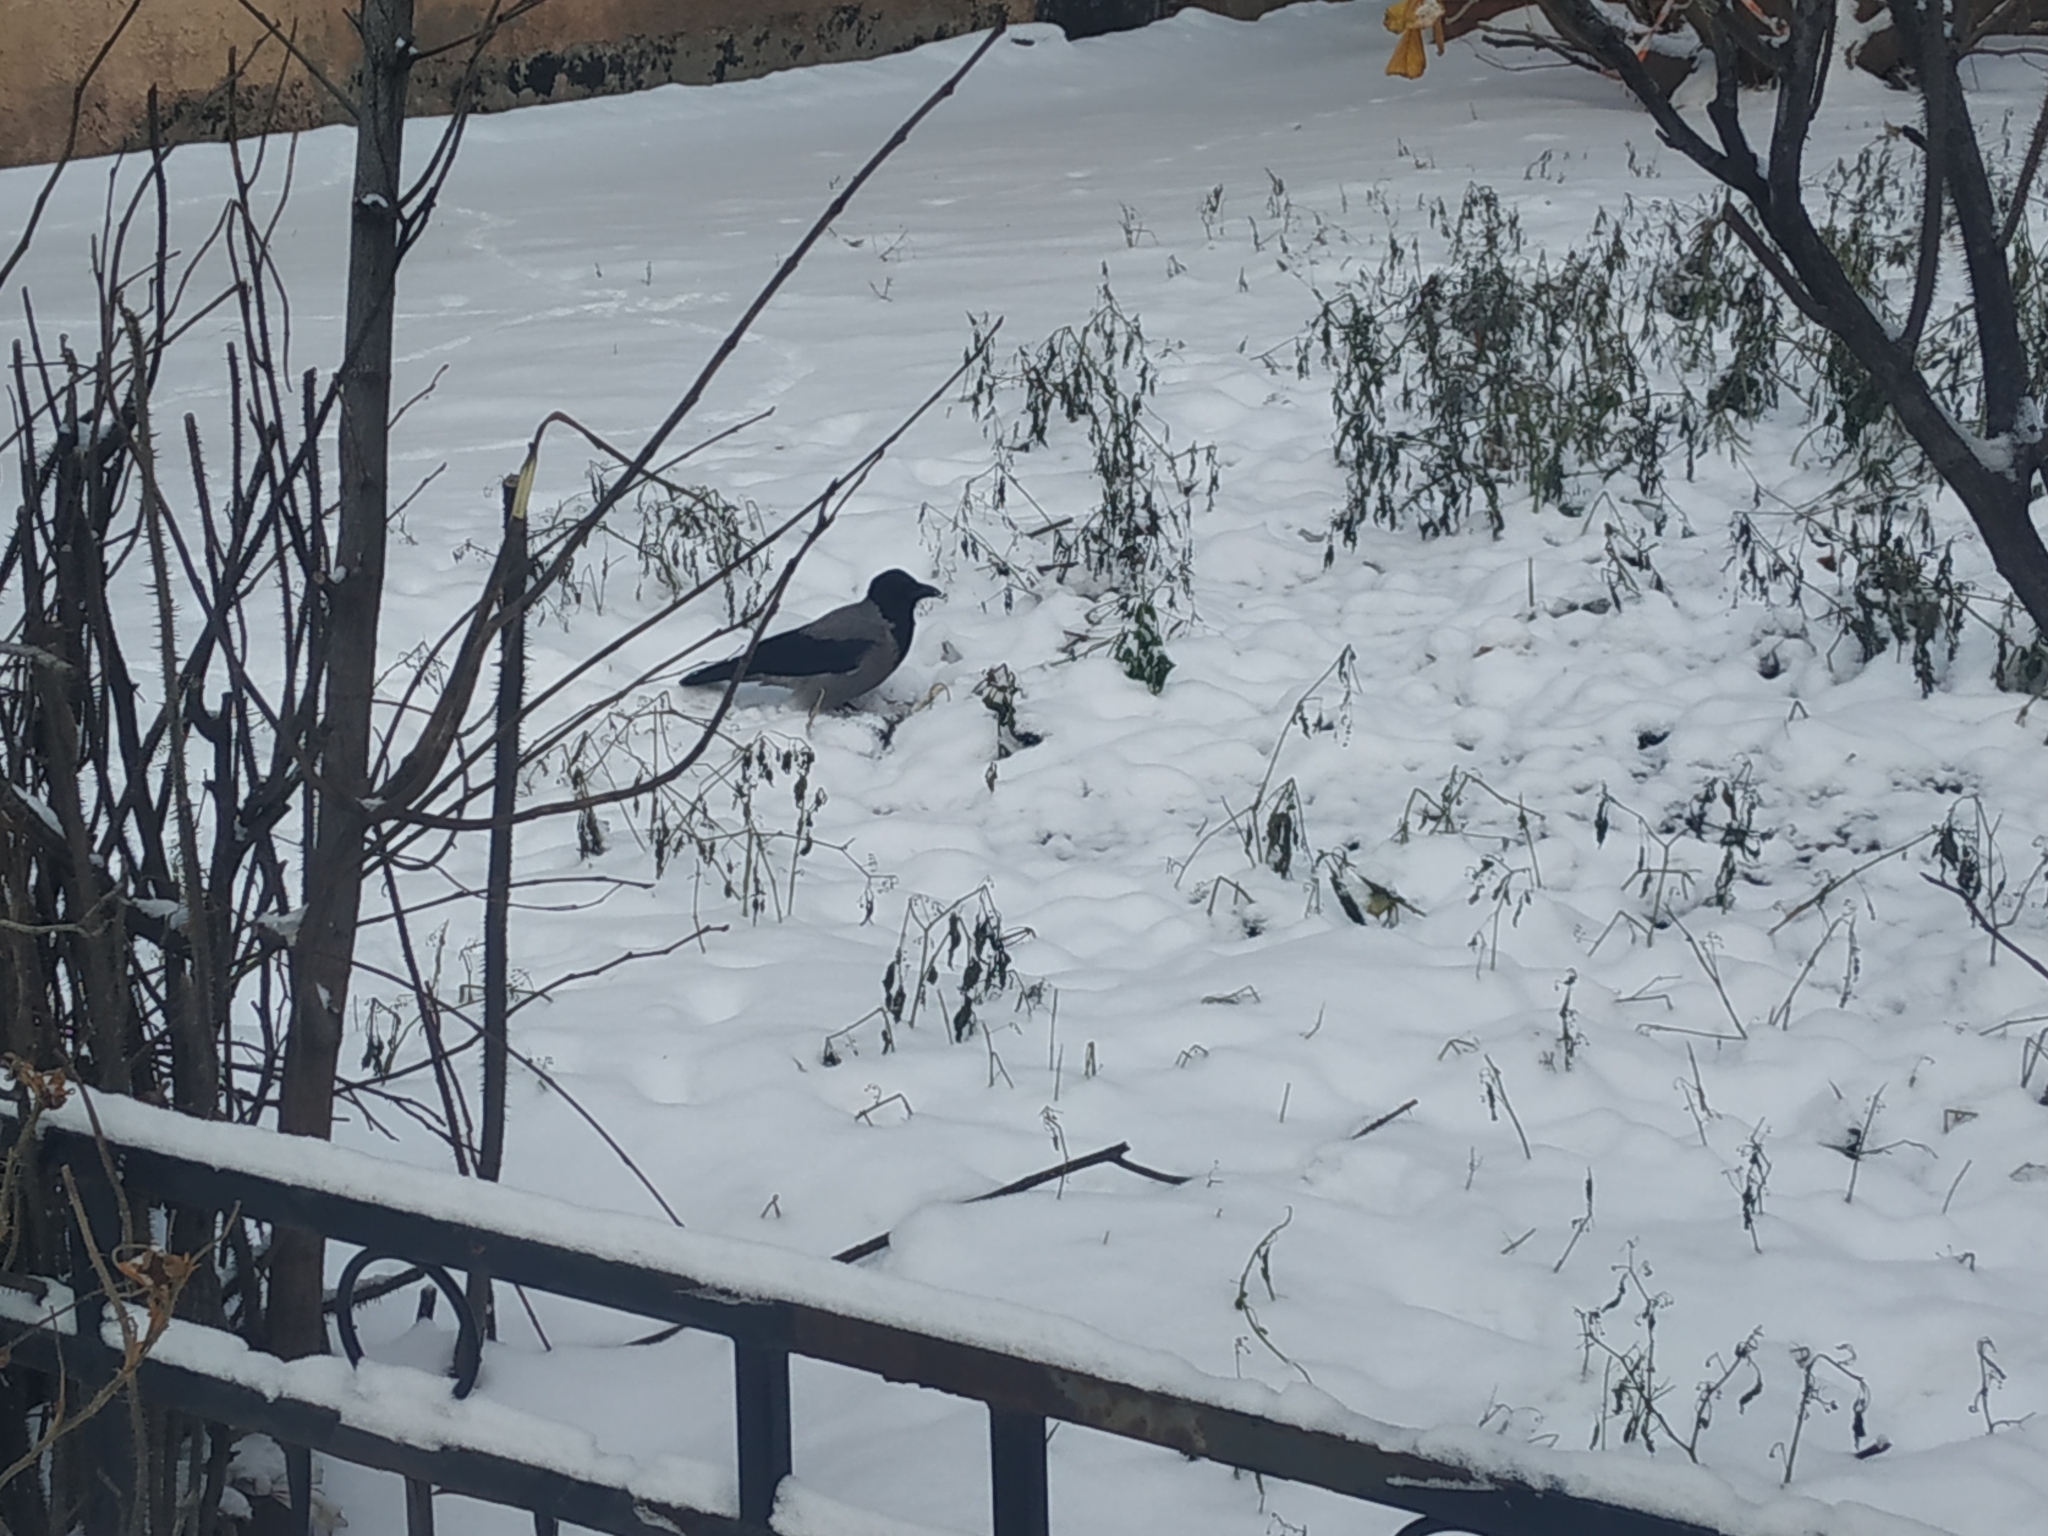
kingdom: Animalia
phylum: Chordata
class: Aves
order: Passeriformes
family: Corvidae
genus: Corvus
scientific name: Corvus cornix
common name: Hooded crow
